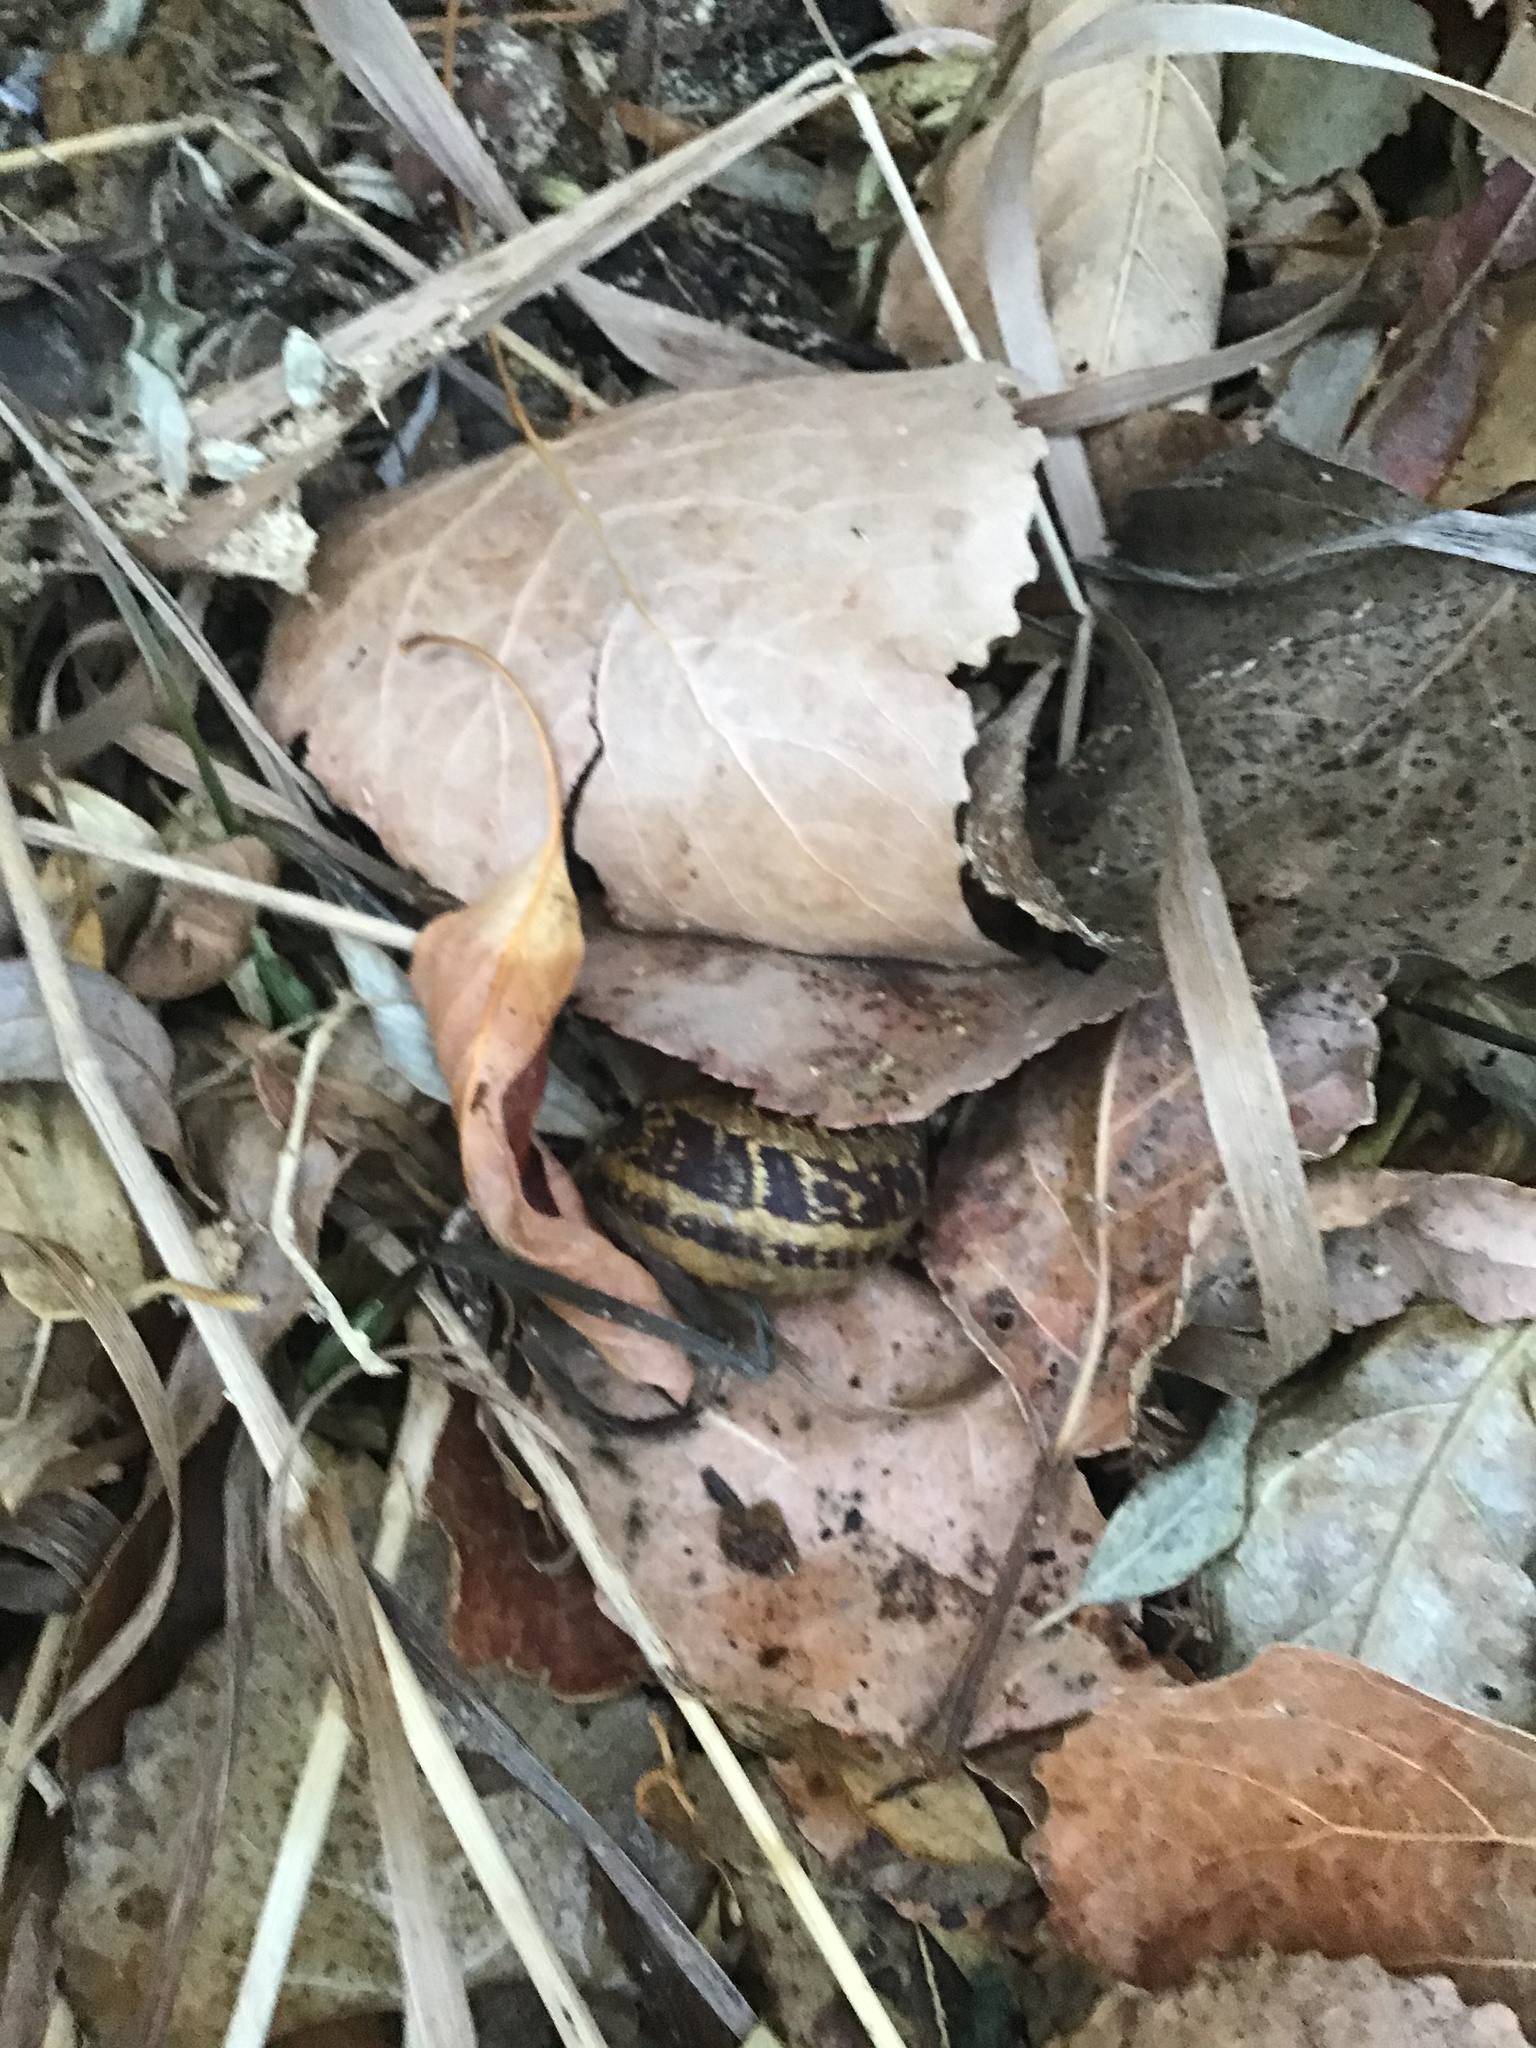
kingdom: Animalia
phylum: Mollusca
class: Gastropoda
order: Stylommatophora
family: Helicidae
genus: Cornu
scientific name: Cornu aspersum
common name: Brown garden snail
